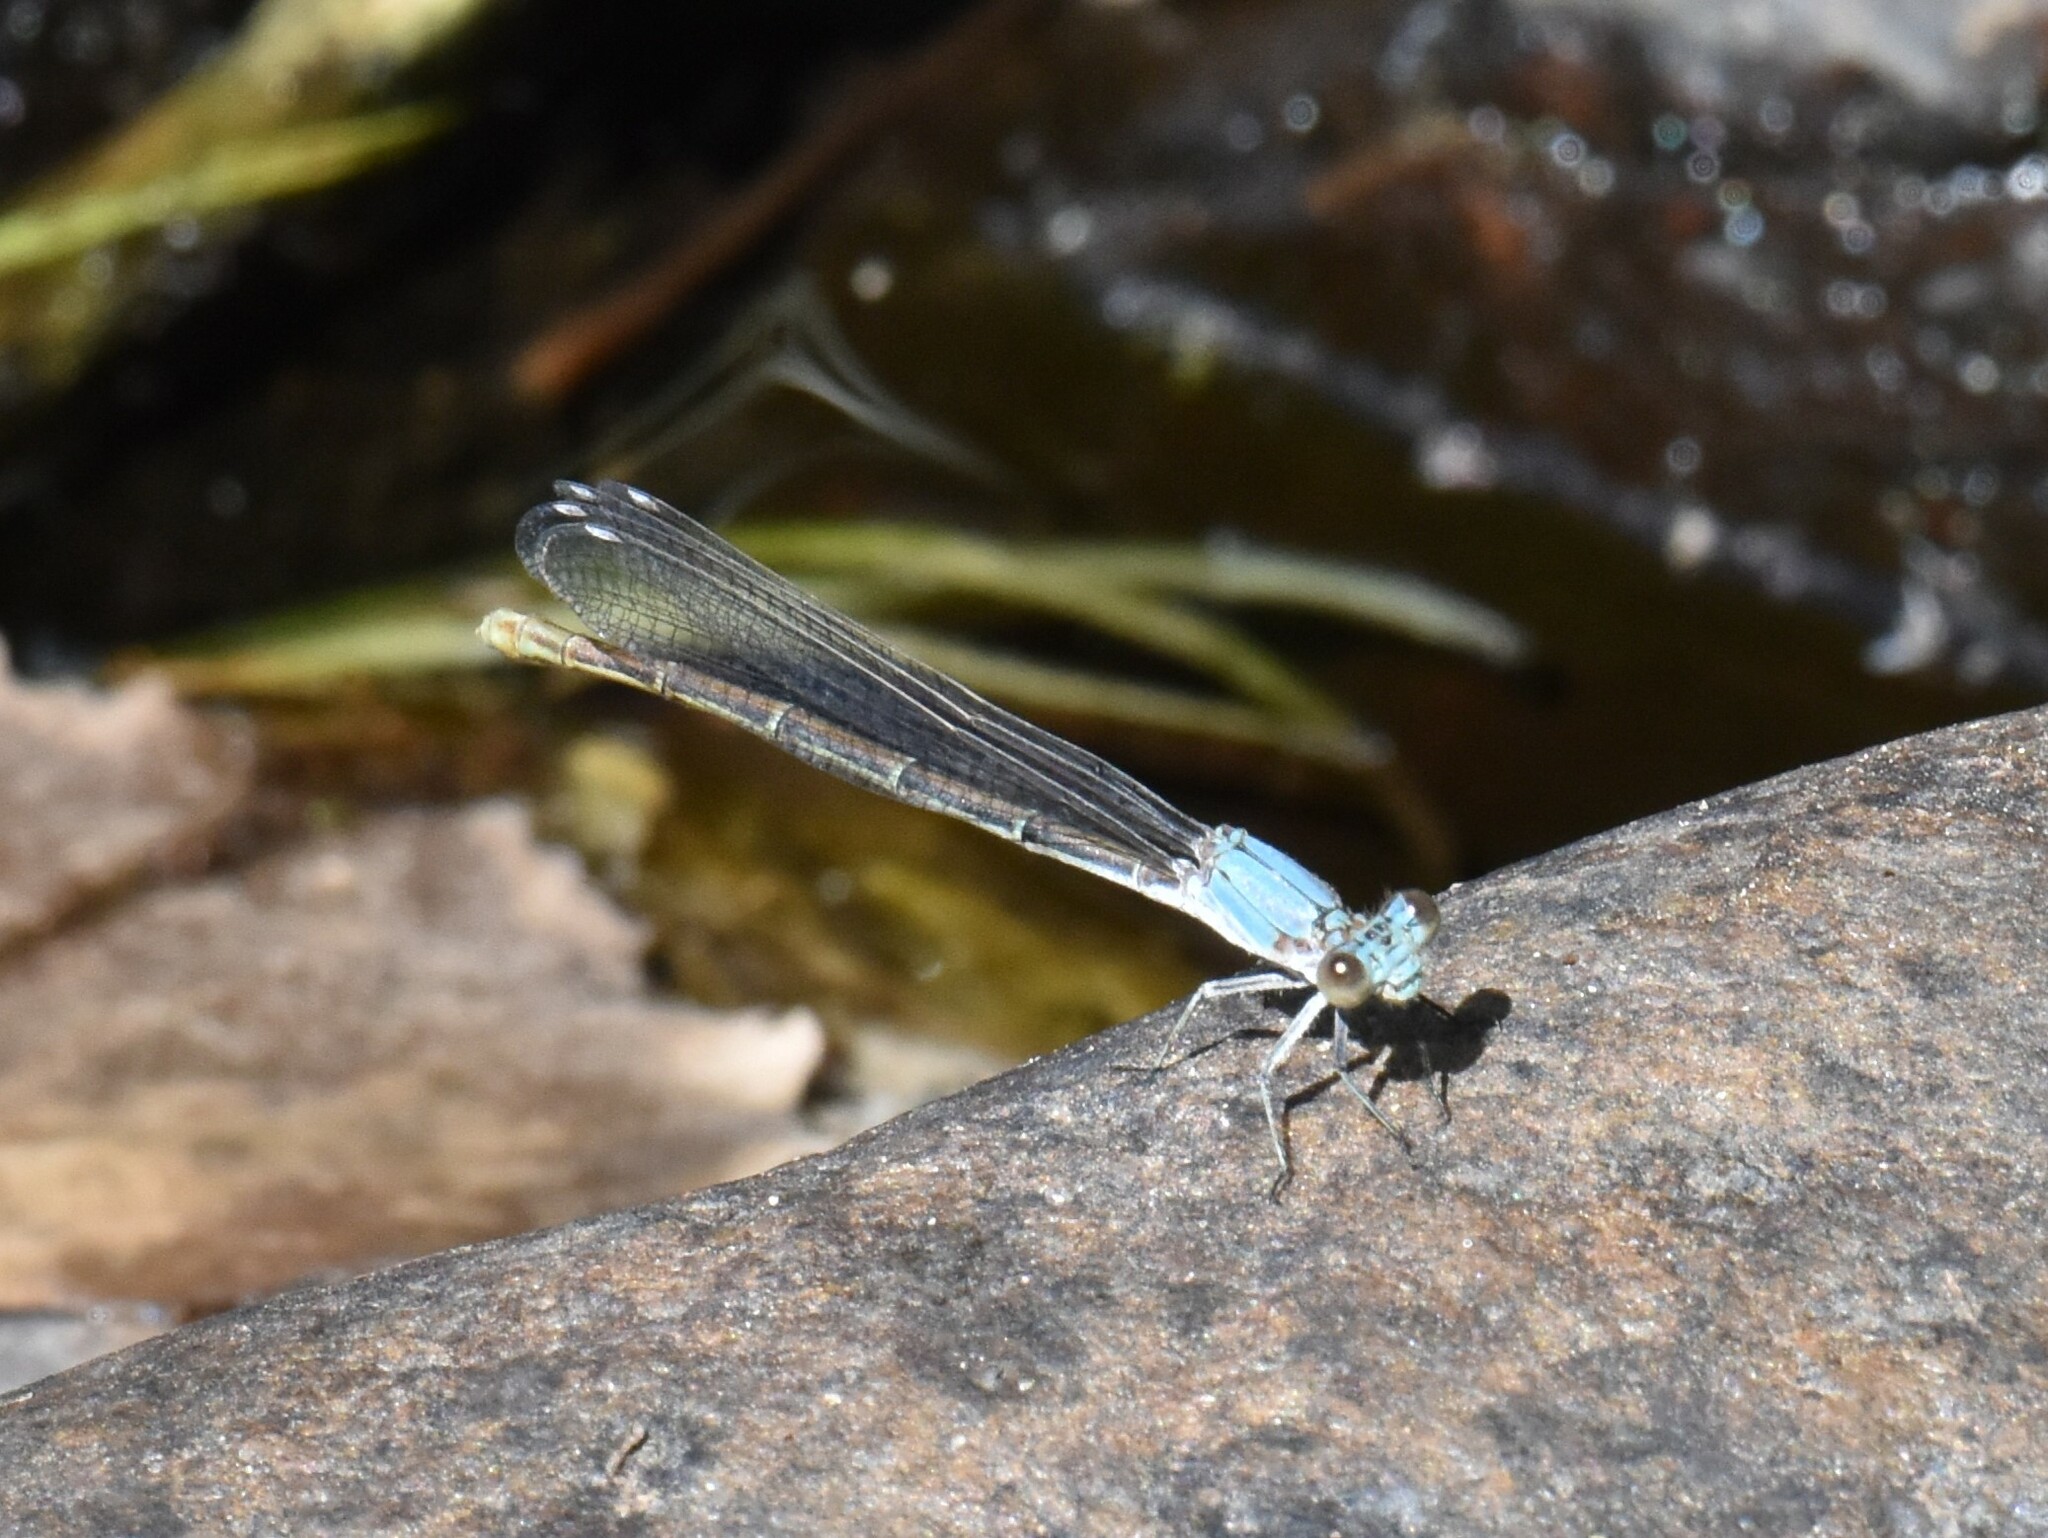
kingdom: Animalia
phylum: Arthropoda
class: Insecta
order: Odonata
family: Coenagrionidae
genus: Argia
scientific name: Argia moesta
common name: Powdered dancer
